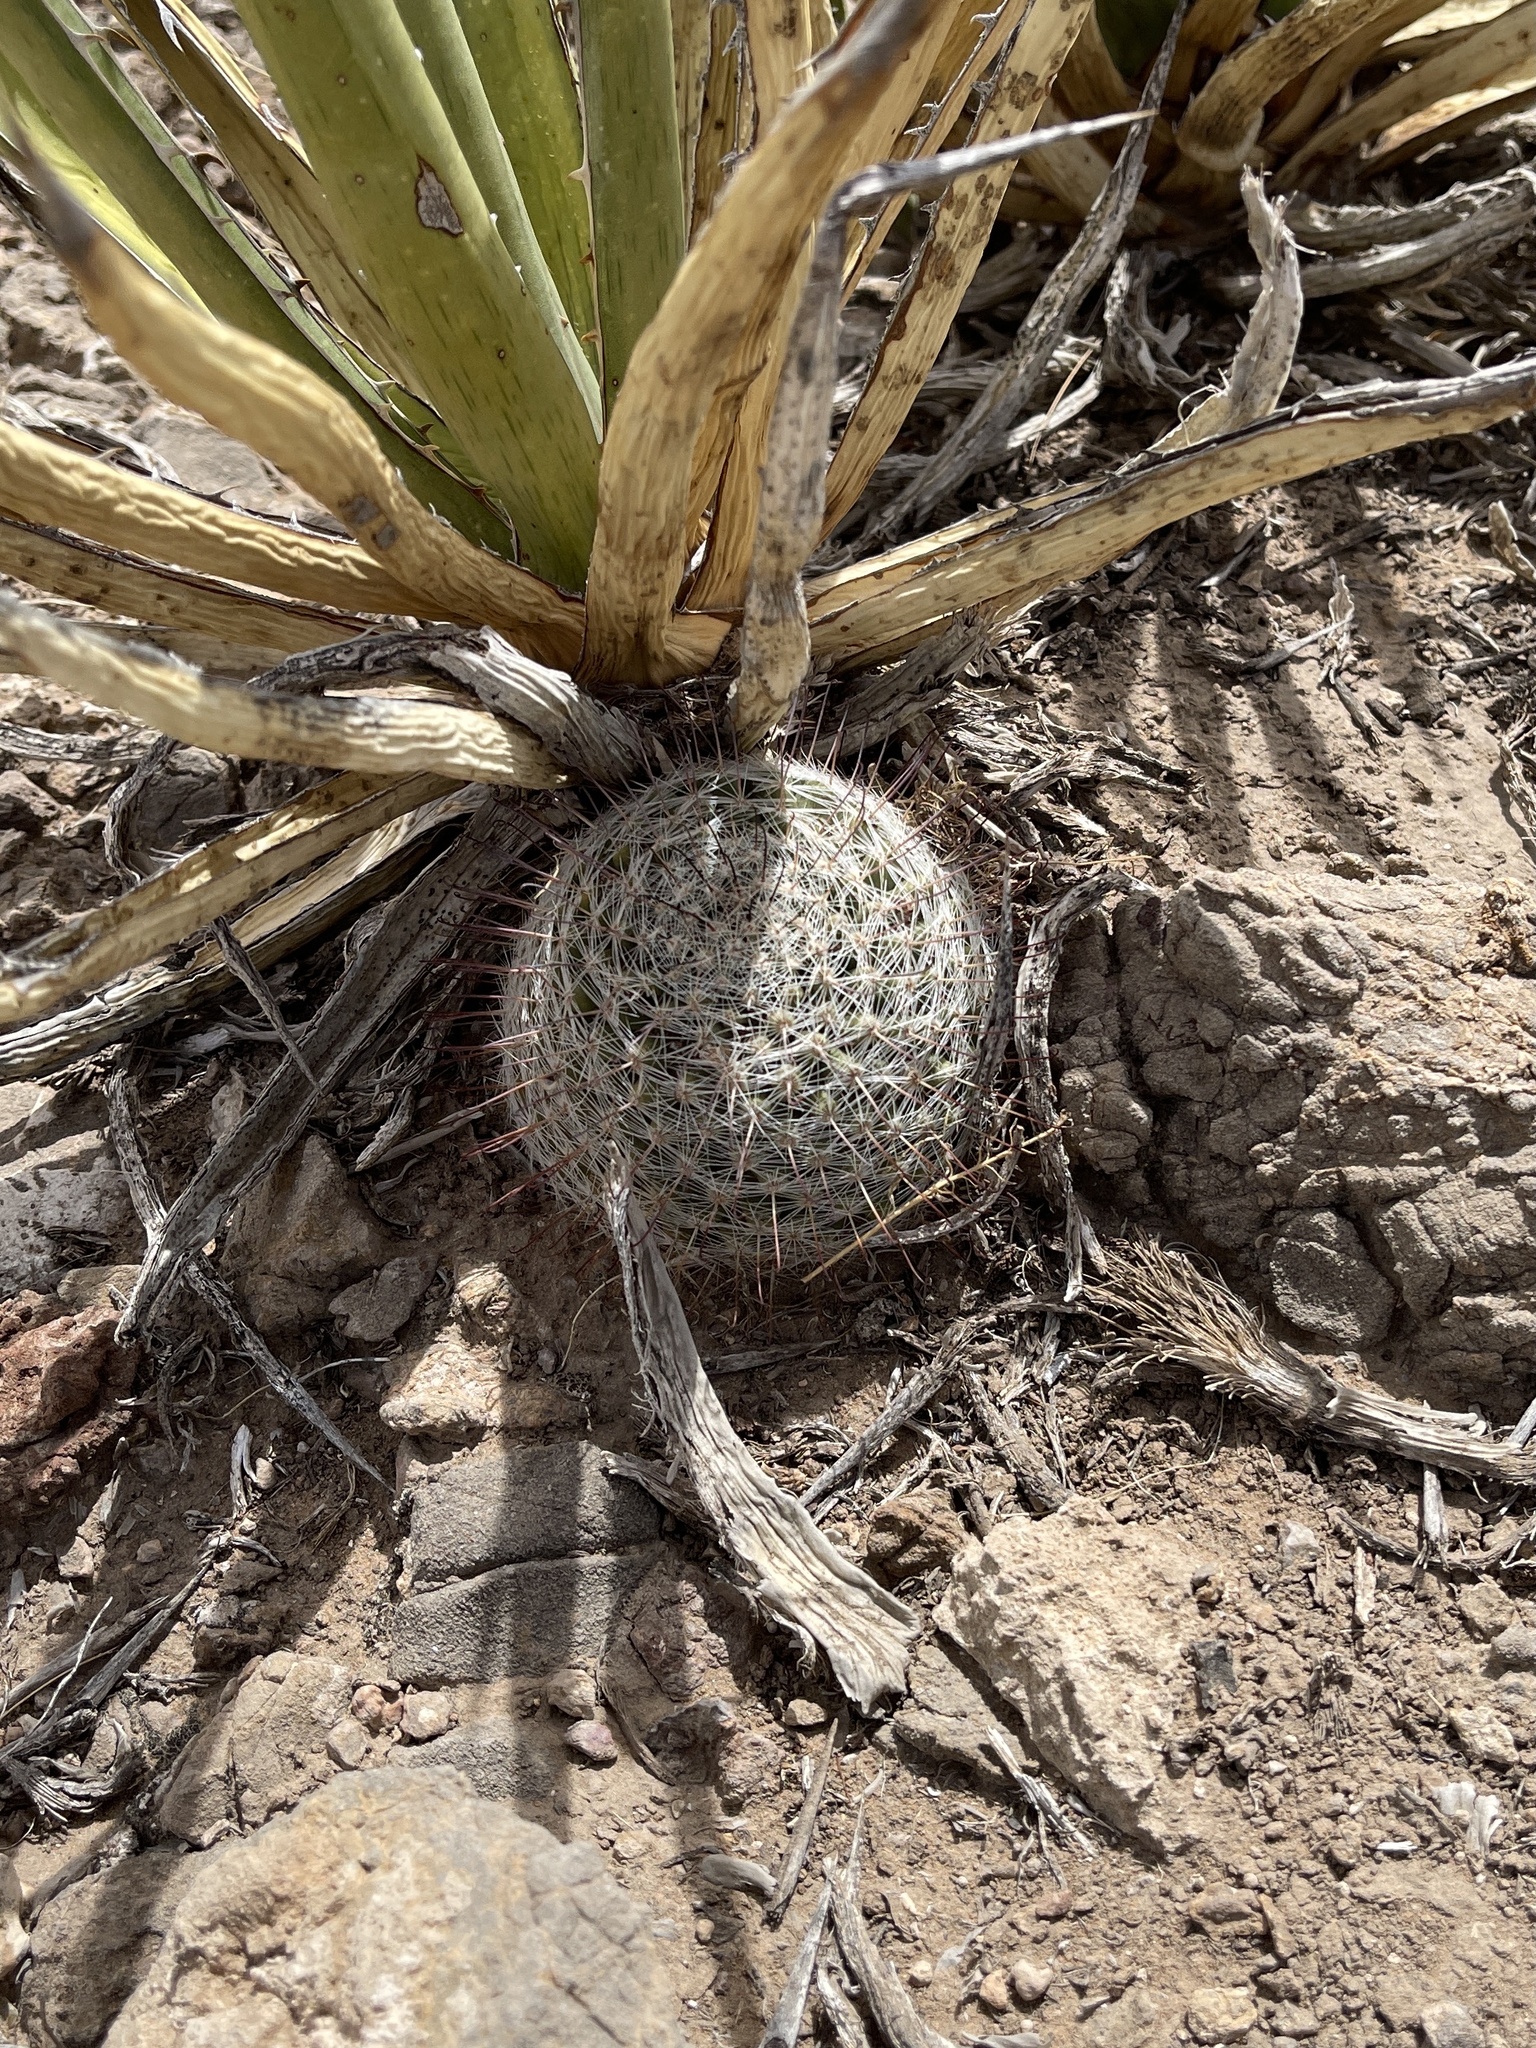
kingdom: Plantae
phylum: Tracheophyta
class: Magnoliopsida
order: Caryophyllales
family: Cactaceae
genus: Cochemiea
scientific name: Cochemiea grahamii
